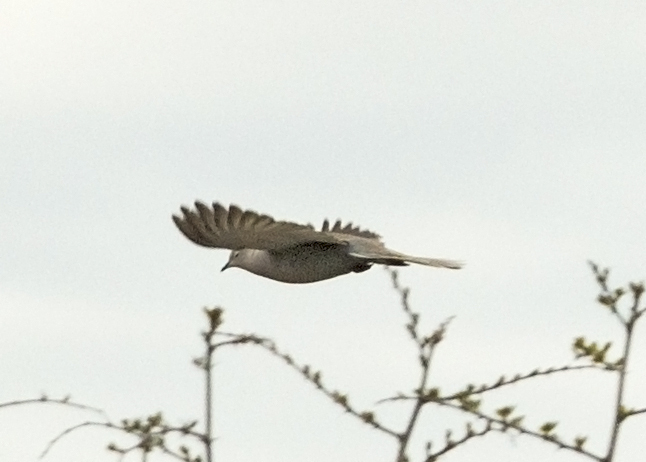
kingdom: Animalia
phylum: Chordata
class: Aves
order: Columbiformes
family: Columbidae
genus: Streptopelia
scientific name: Streptopelia decaocto
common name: Eurasian collared dove
